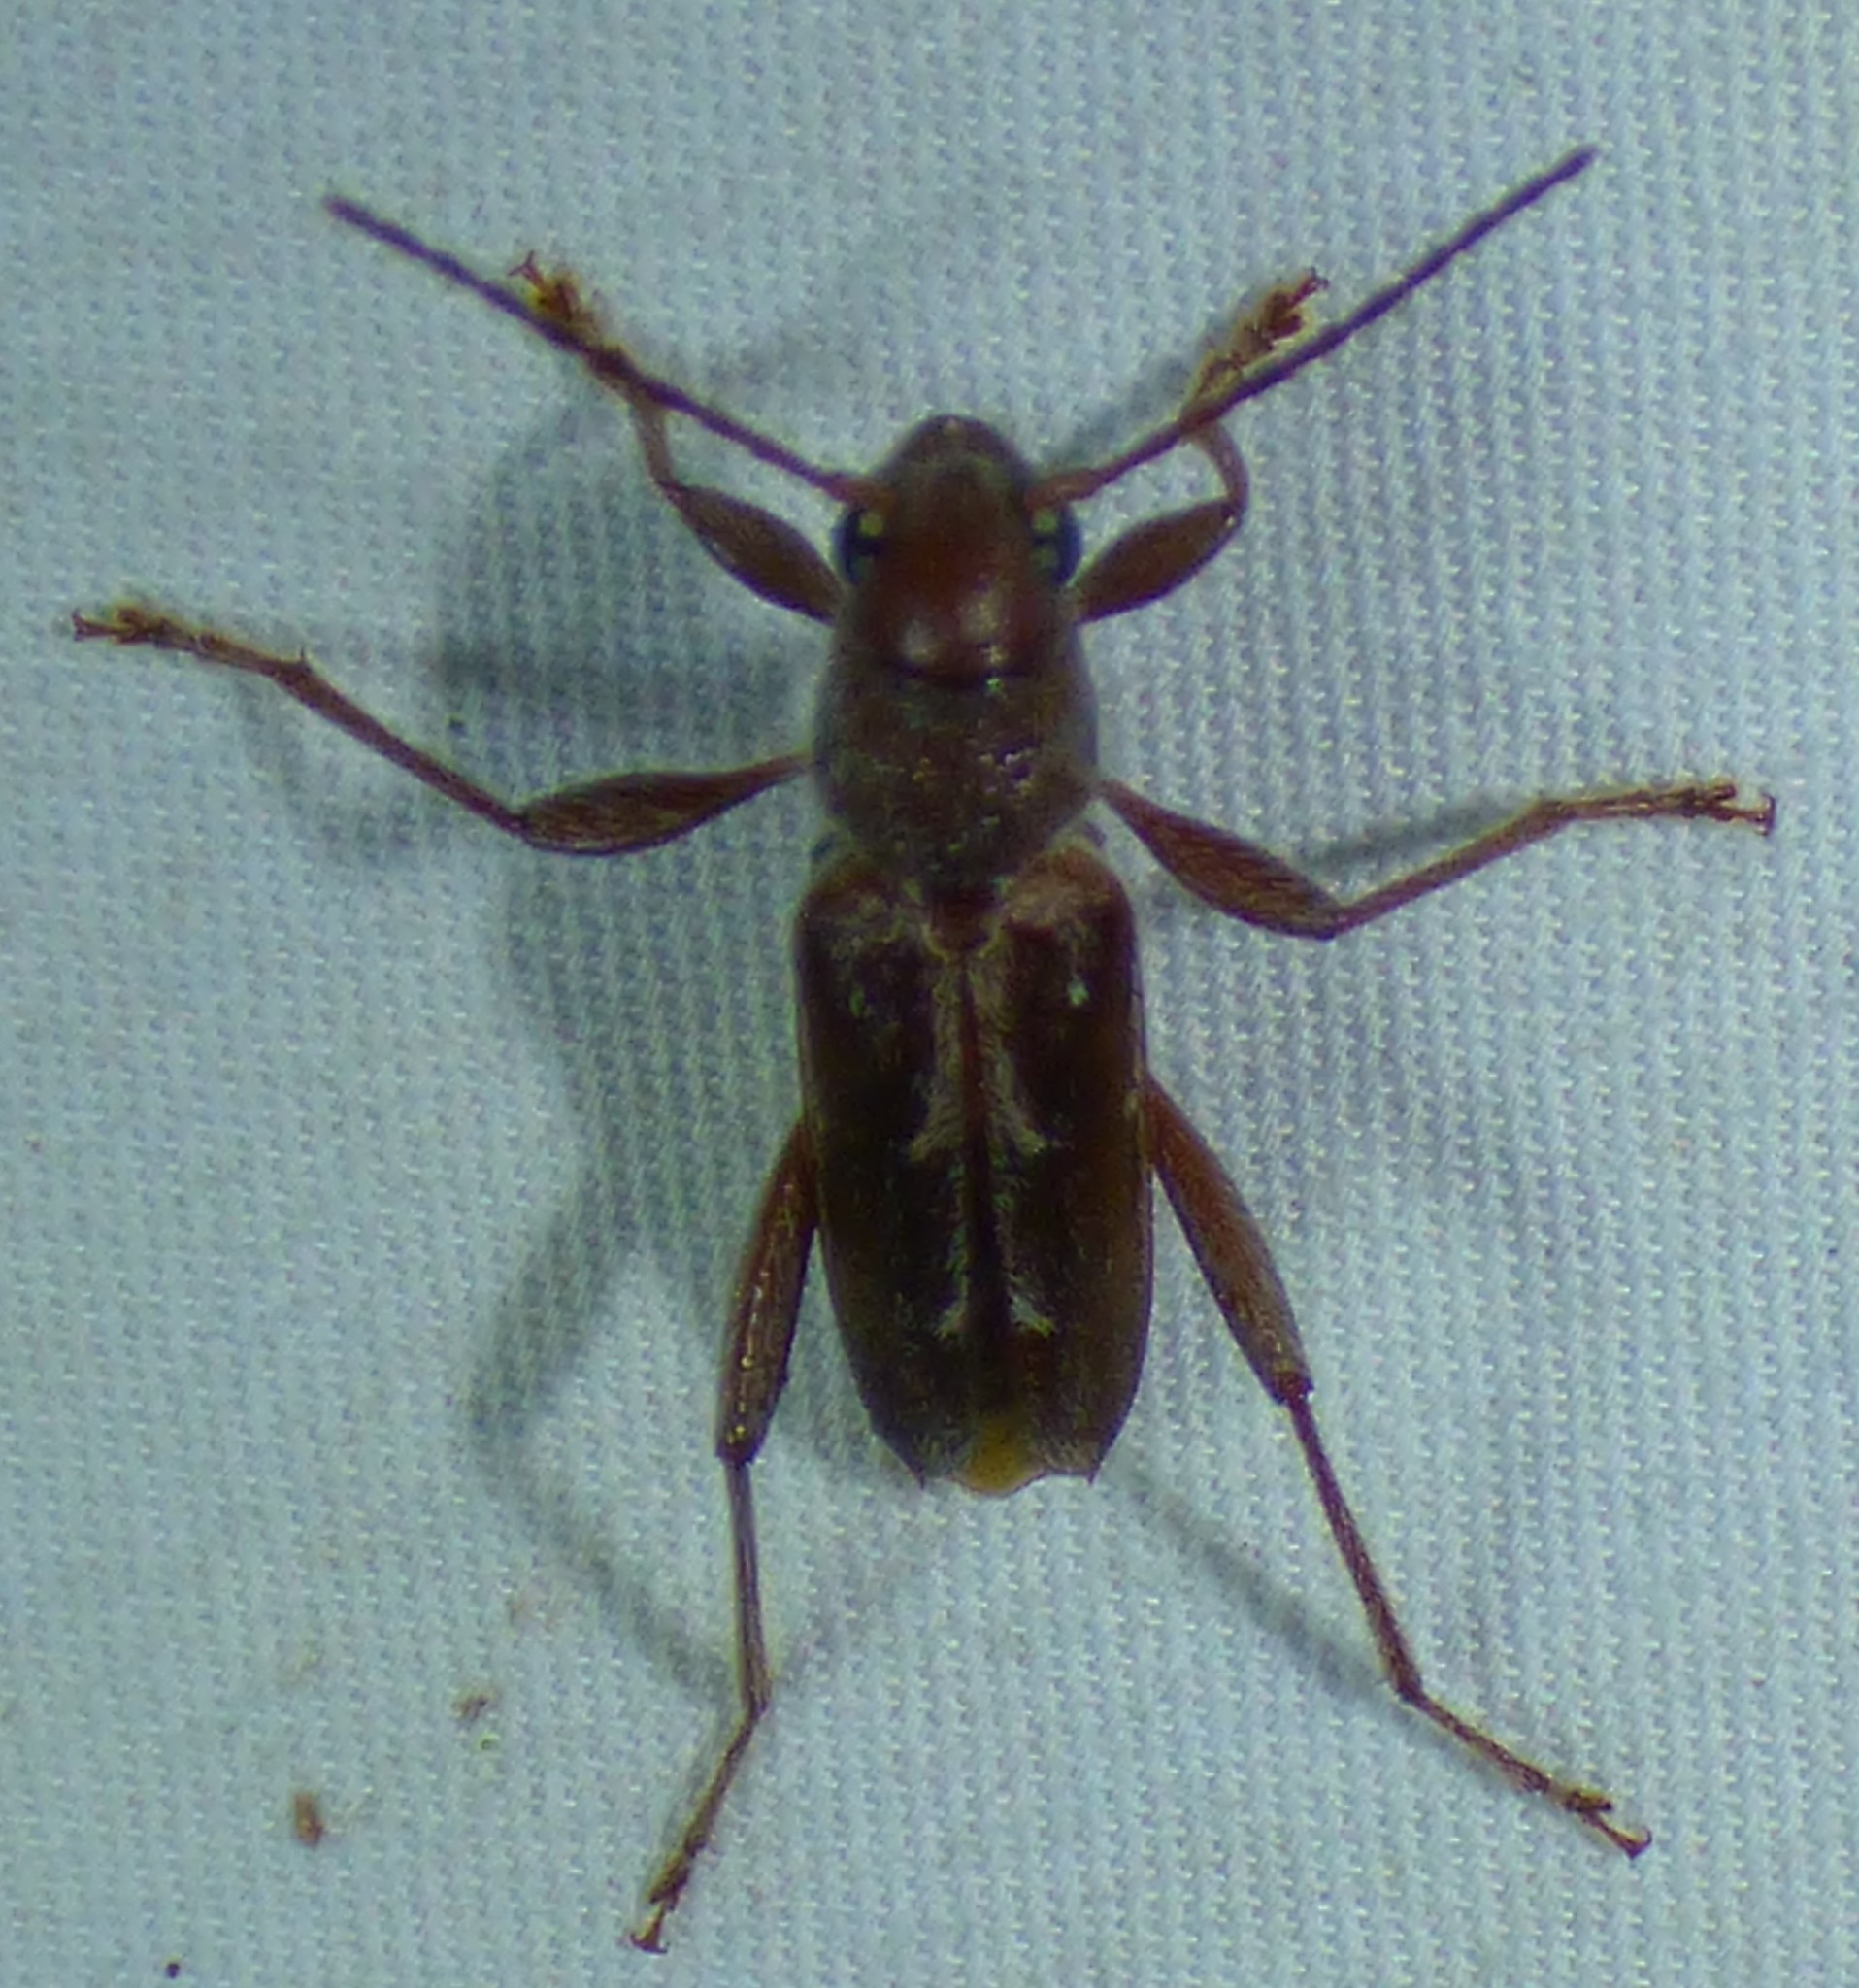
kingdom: Animalia
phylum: Arthropoda
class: Insecta
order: Coleoptera
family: Cerambycidae
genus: Xylotrechus
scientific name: Xylotrechus sagittatus
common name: Arrowhead borer
